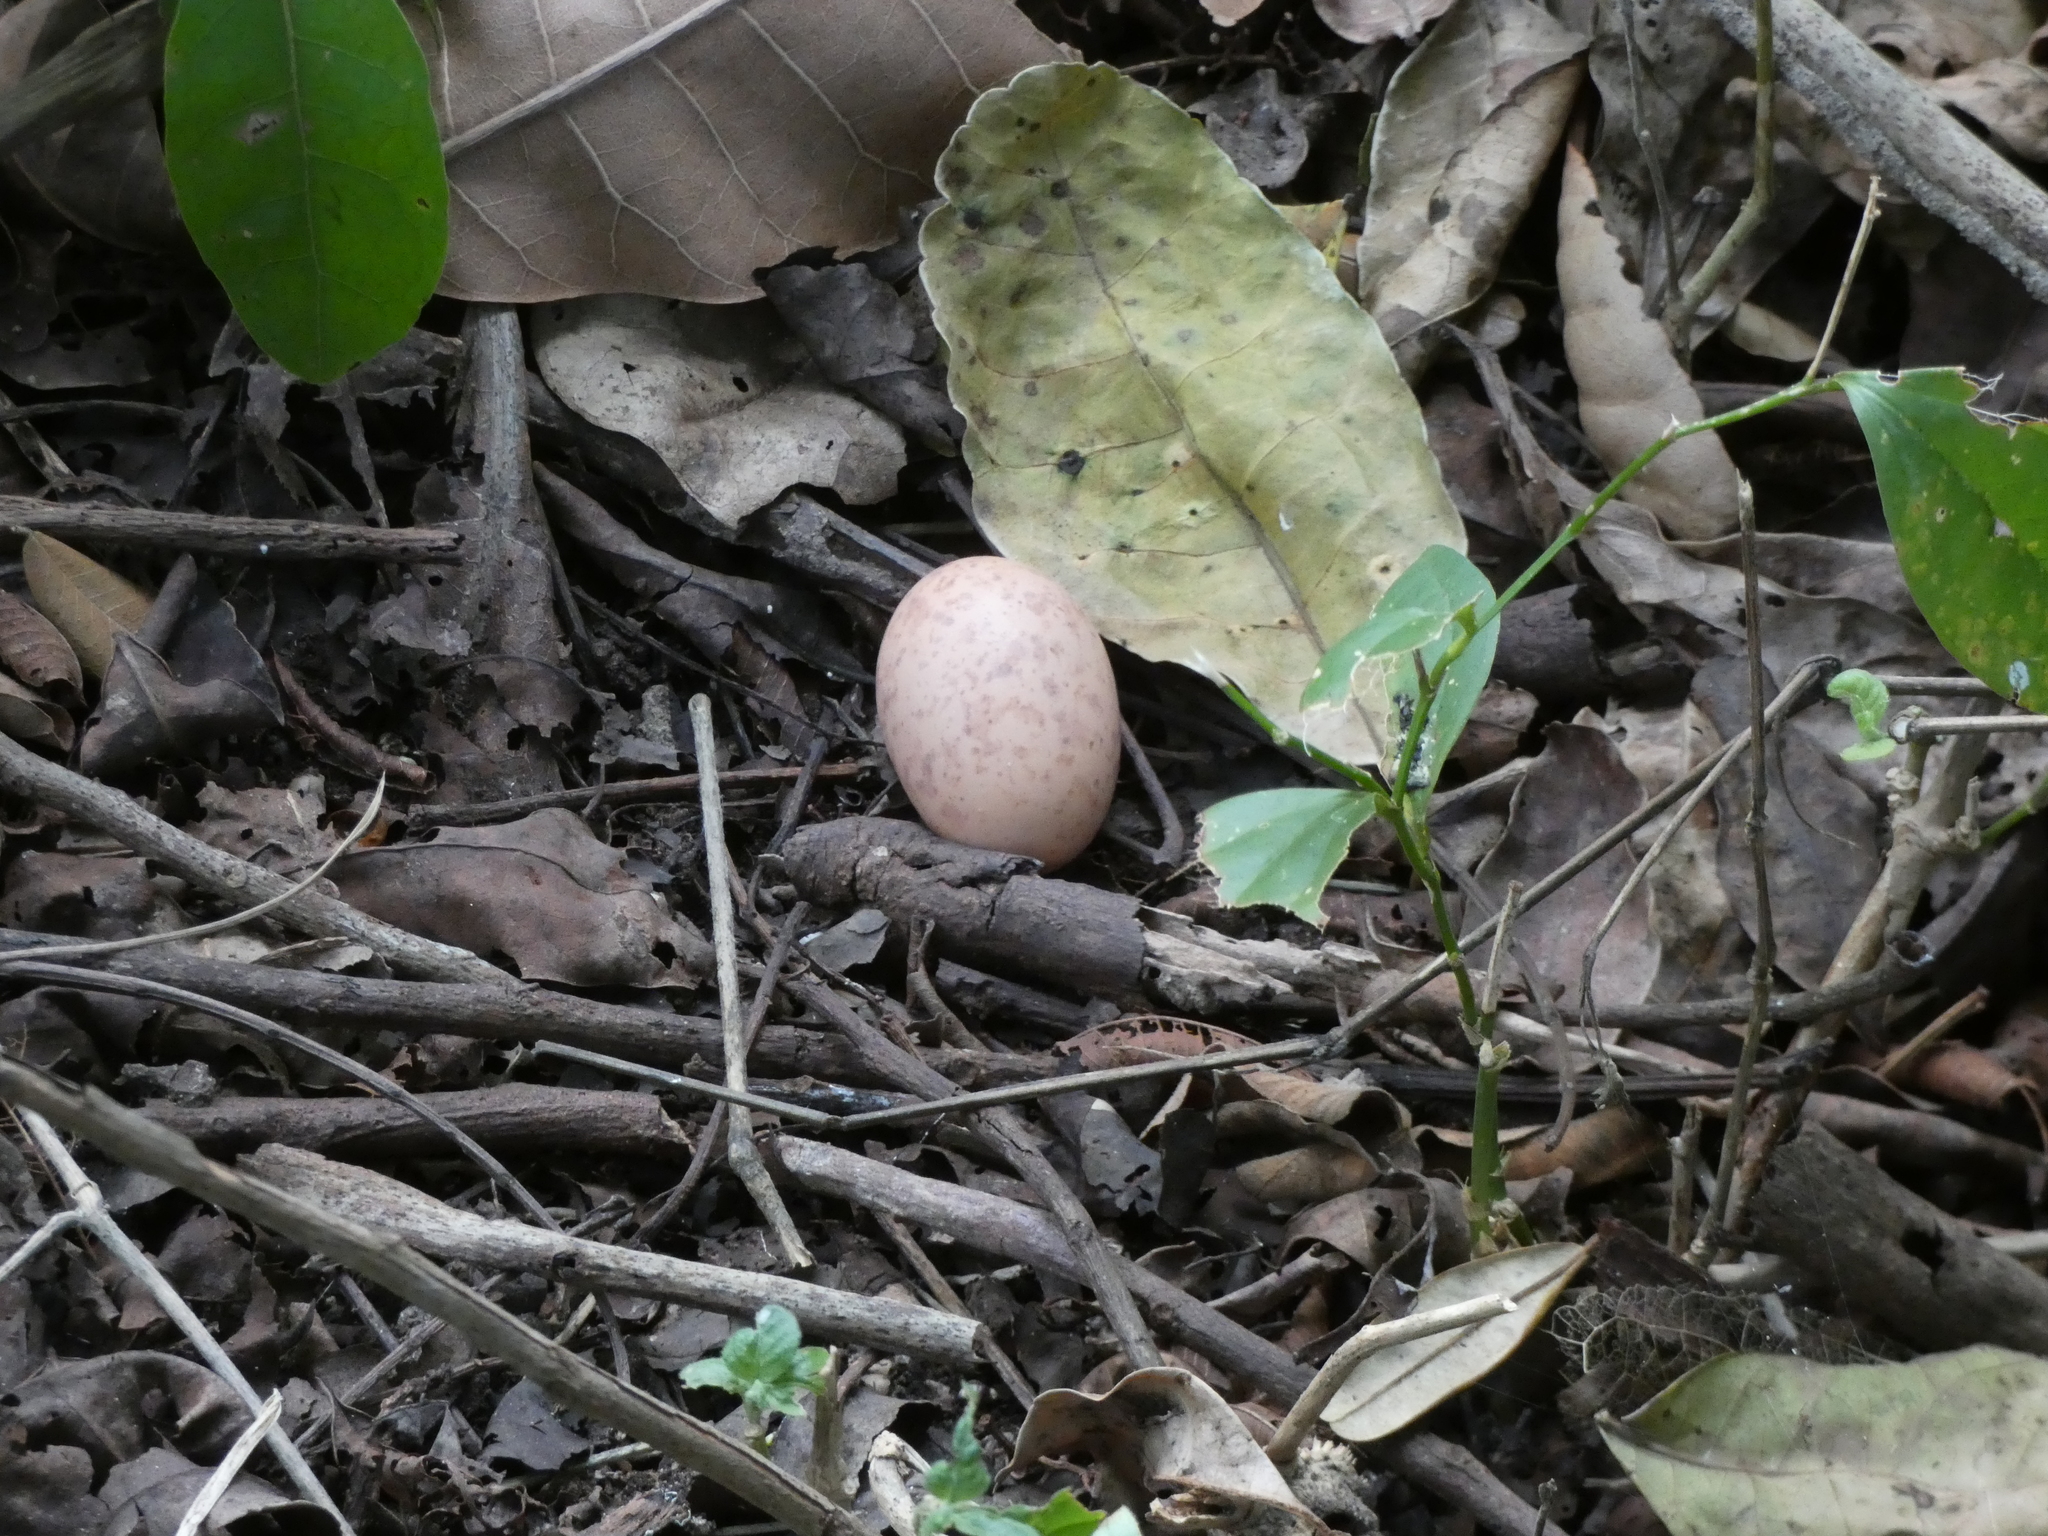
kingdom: Animalia
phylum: Chordata
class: Aves
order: Caprimulgiformes
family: Caprimulgidae
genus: Nyctidromus
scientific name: Nyctidromus albicollis
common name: Pauraque
